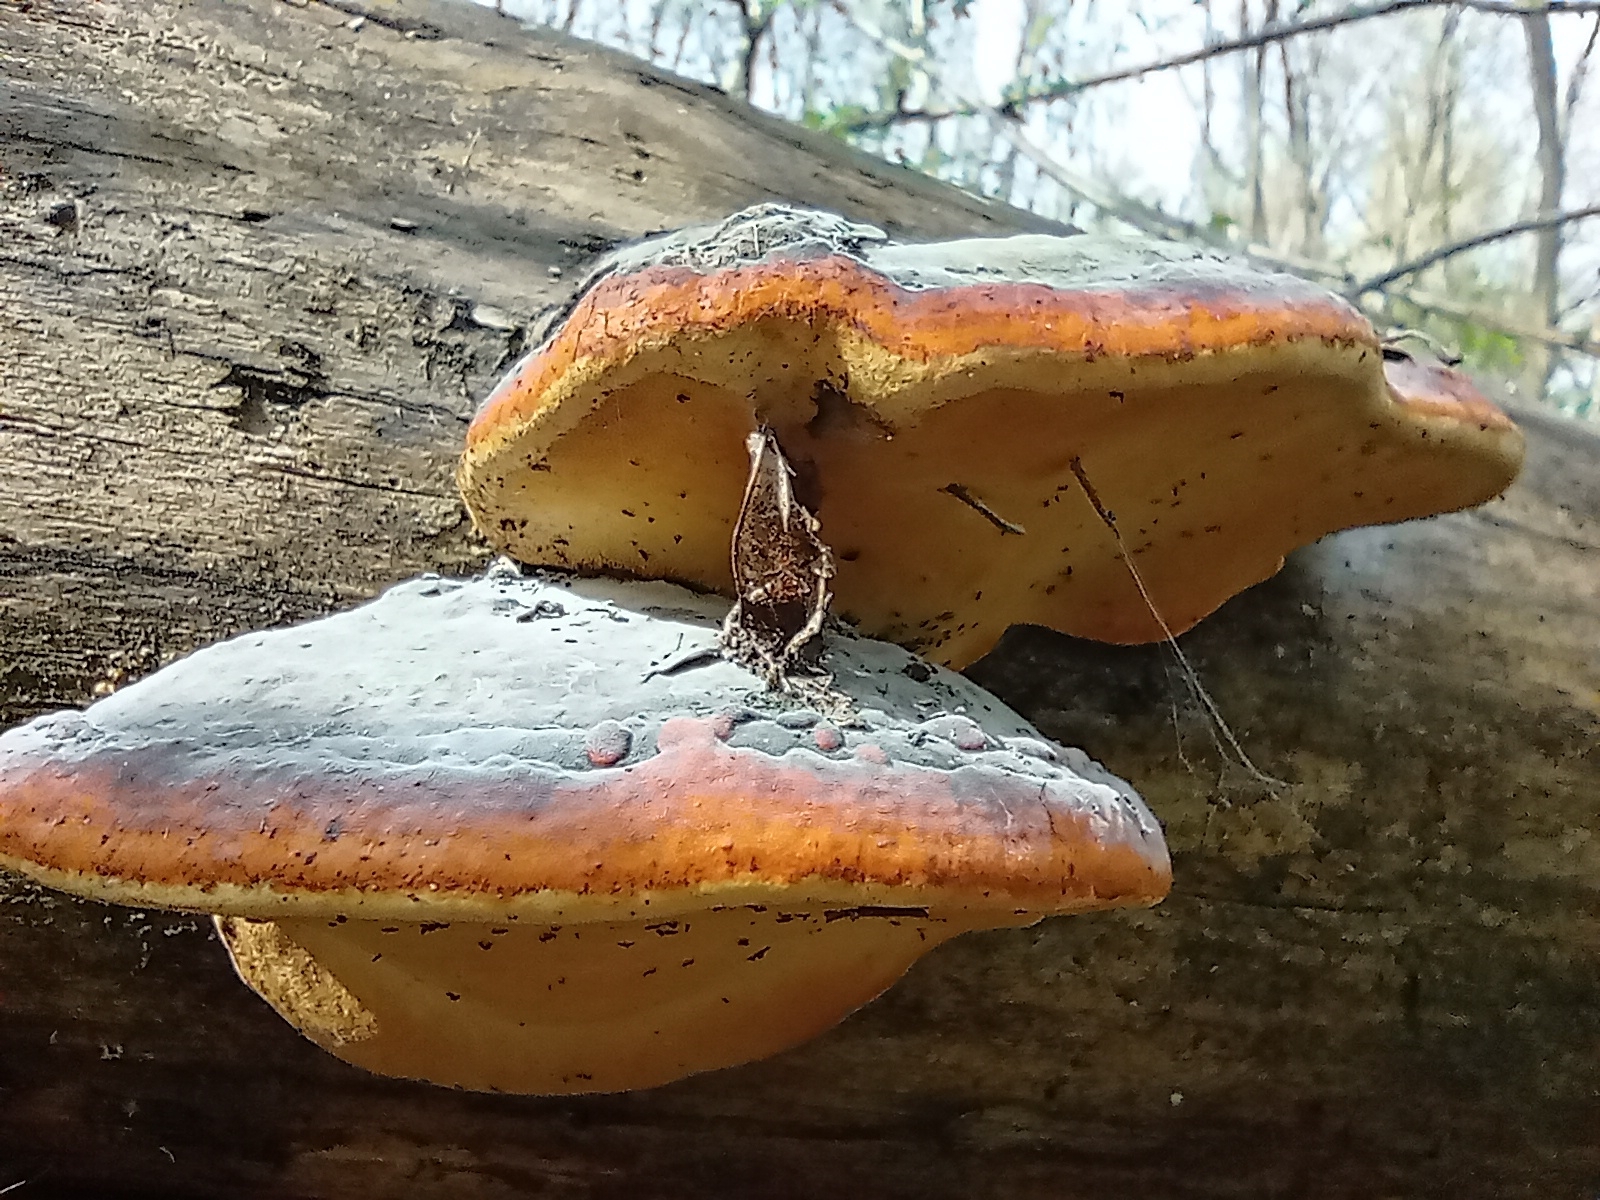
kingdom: Fungi
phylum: Basidiomycota
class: Agaricomycetes
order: Polyporales
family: Fomitopsidaceae
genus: Fomitopsis
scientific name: Fomitopsis pinicola
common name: Red-belted bracket
